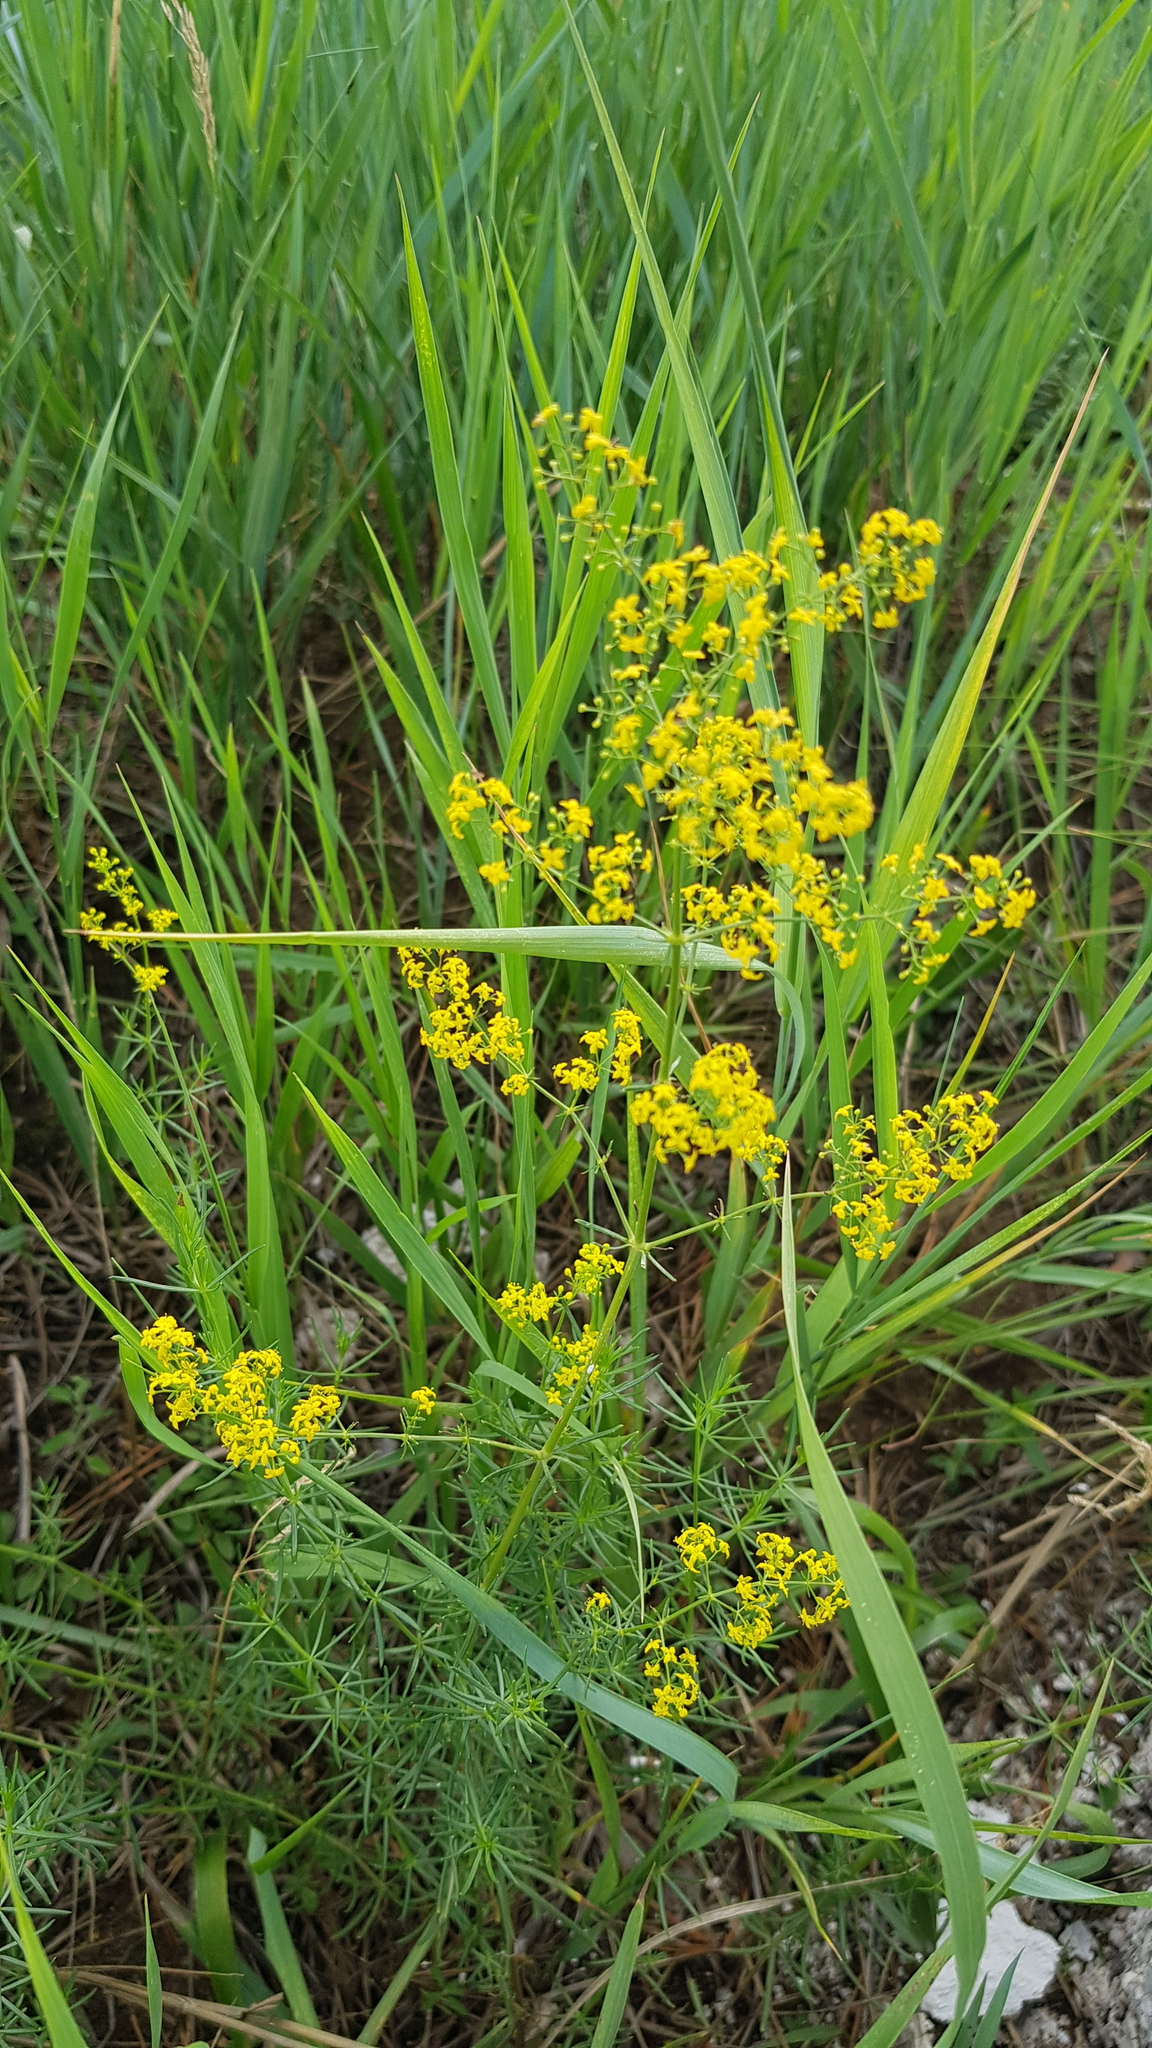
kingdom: Plantae
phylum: Tracheophyta
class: Magnoliopsida
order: Gentianales
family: Rubiaceae
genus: Galium
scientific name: Galium verum
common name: Lady's bedstraw
